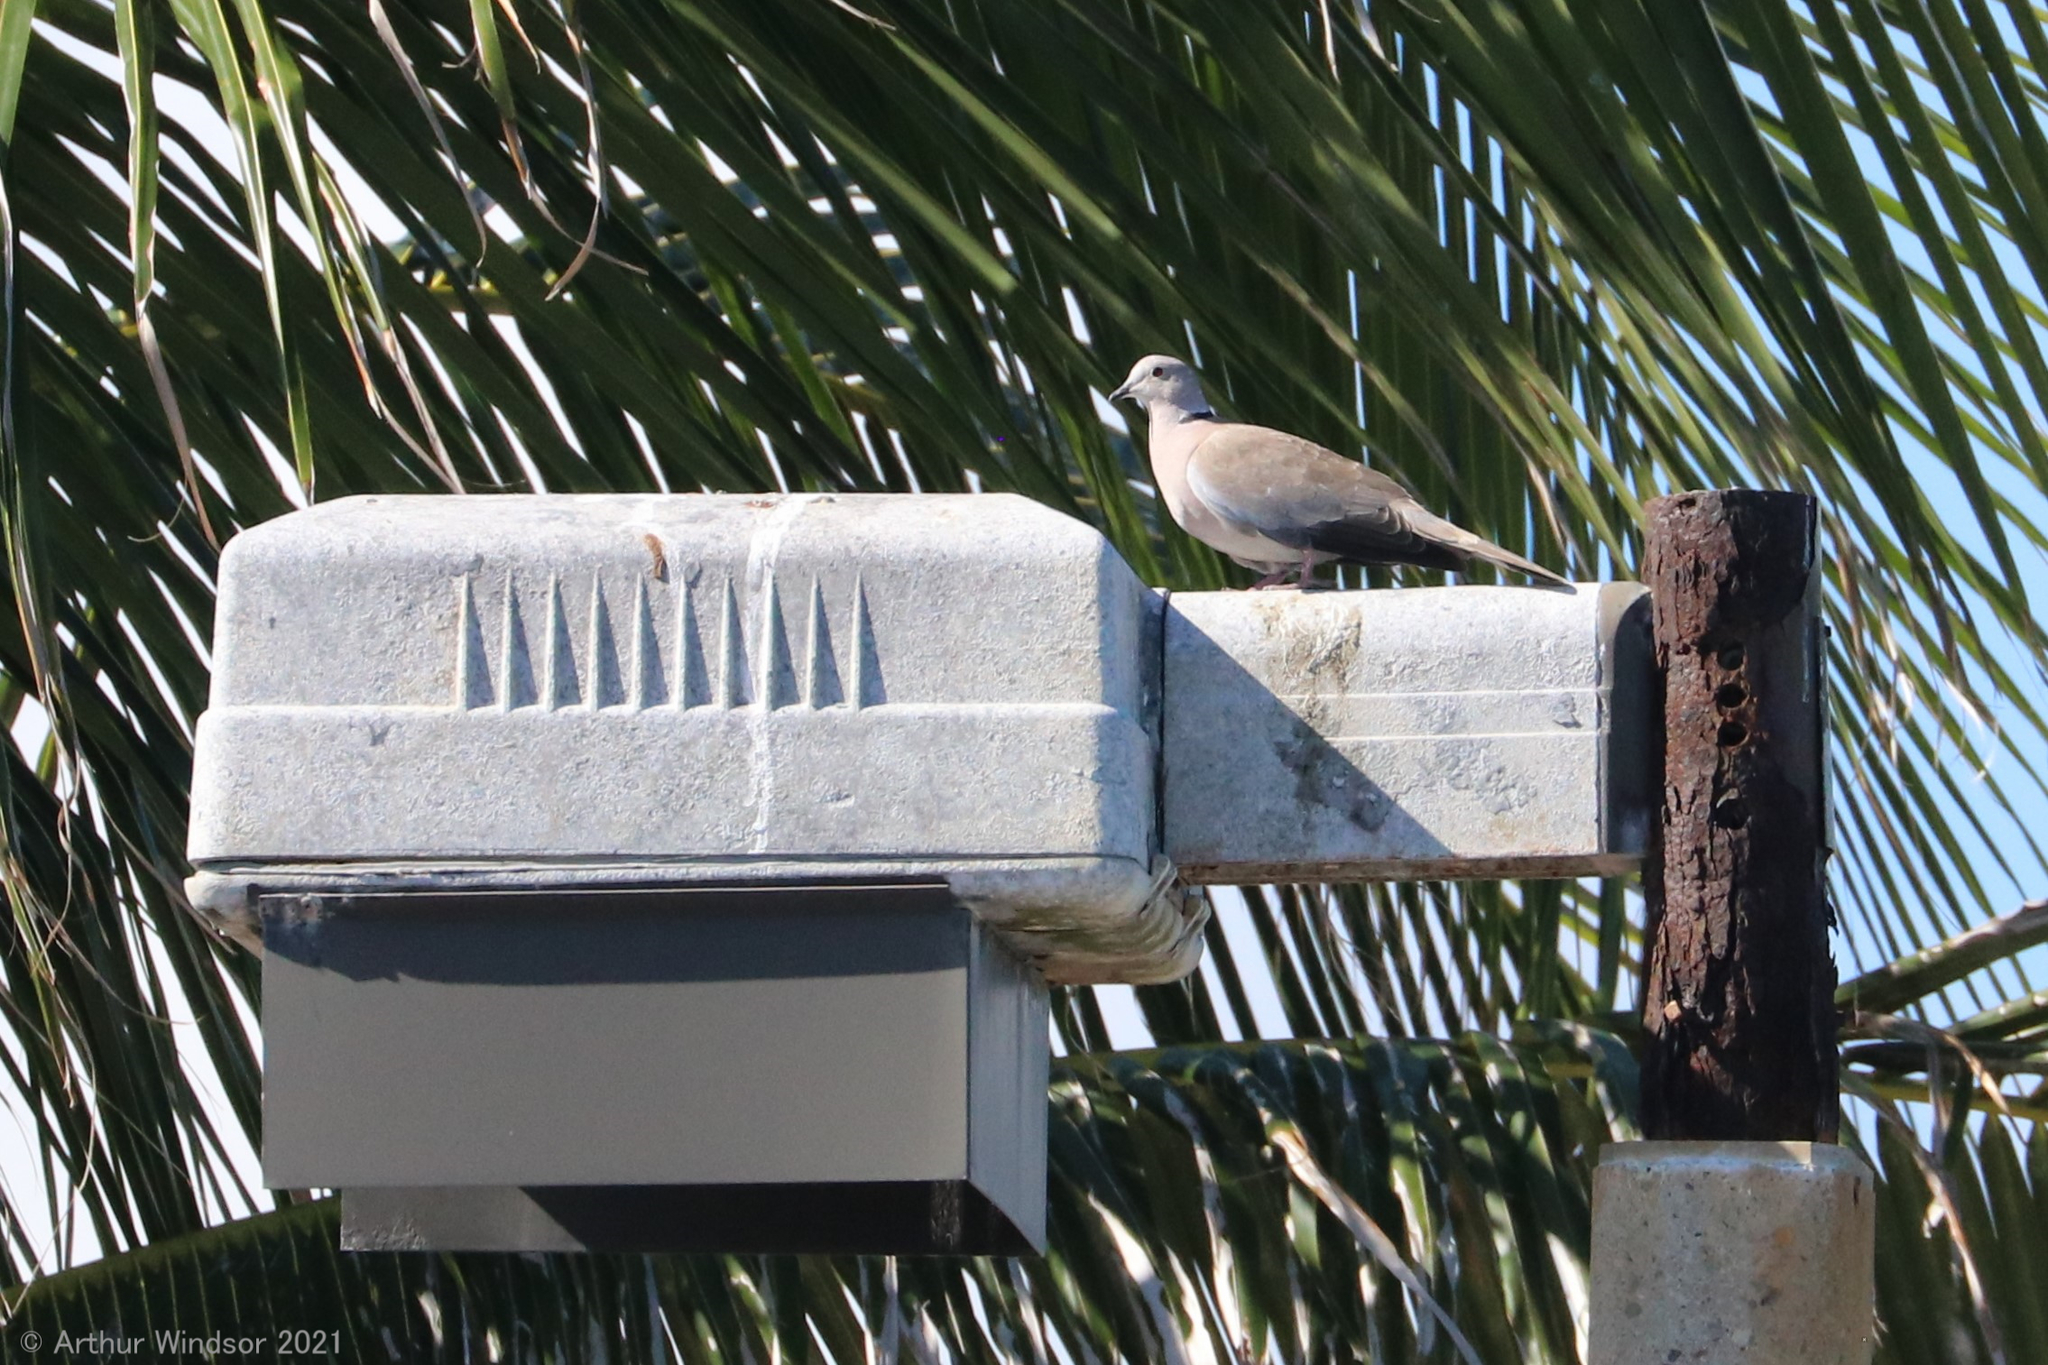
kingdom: Animalia
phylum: Chordata
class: Aves
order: Columbiformes
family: Columbidae
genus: Streptopelia
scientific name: Streptopelia decaocto
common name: Eurasian collared dove
